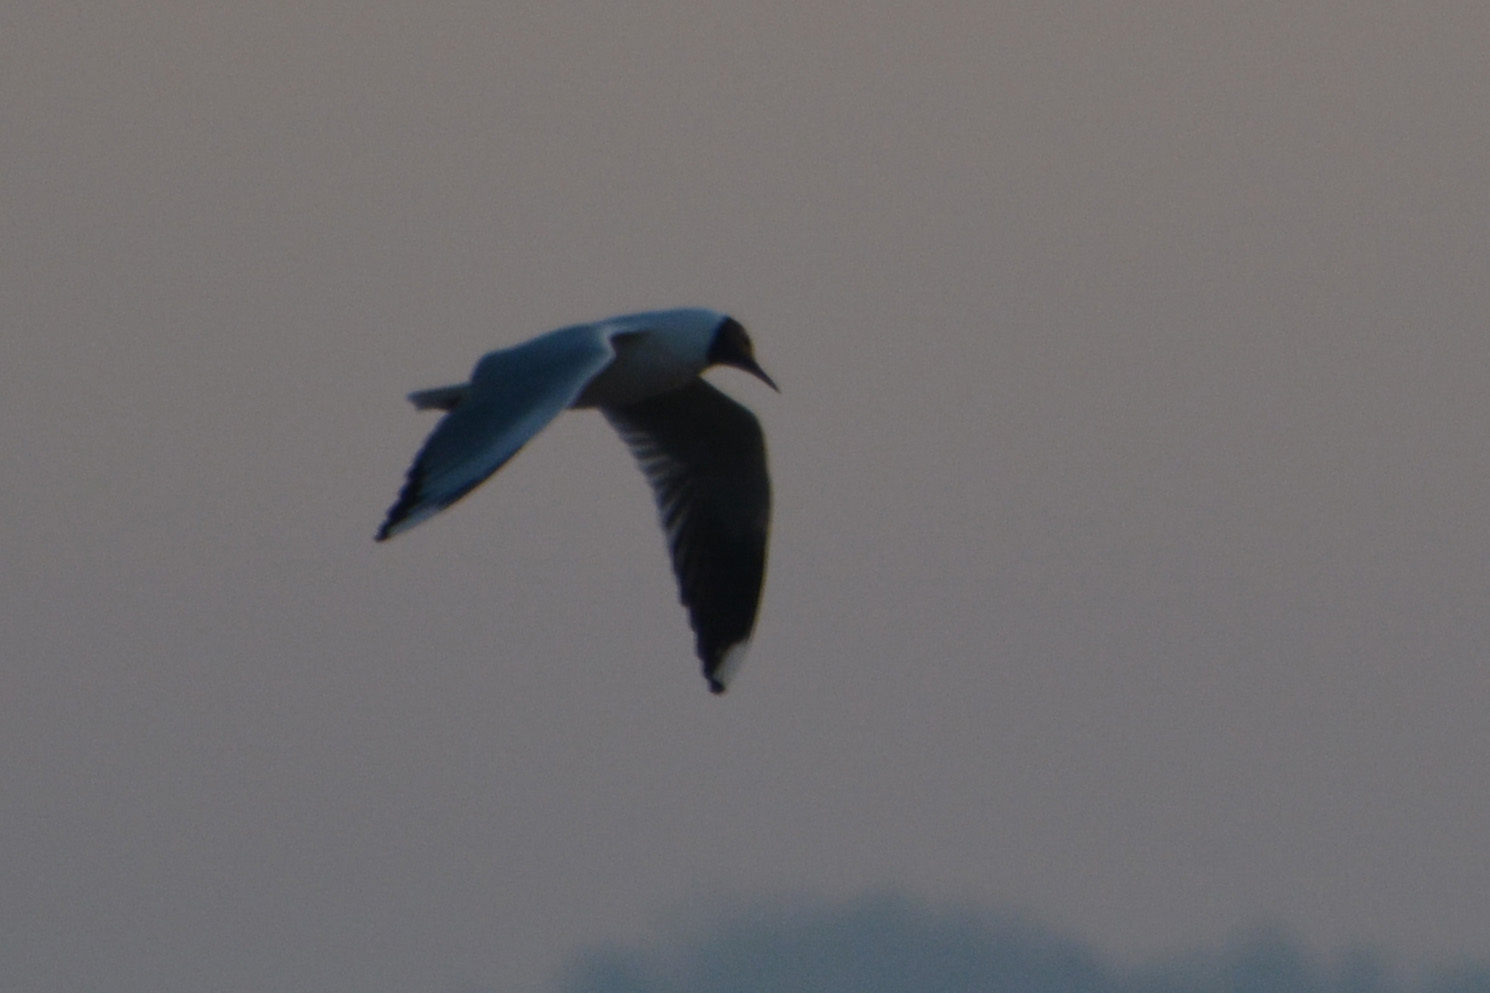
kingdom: Animalia
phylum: Chordata
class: Aves
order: Charadriiformes
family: Laridae
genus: Chroicocephalus
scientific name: Chroicocephalus maculipennis
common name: Brown-hooded gull
